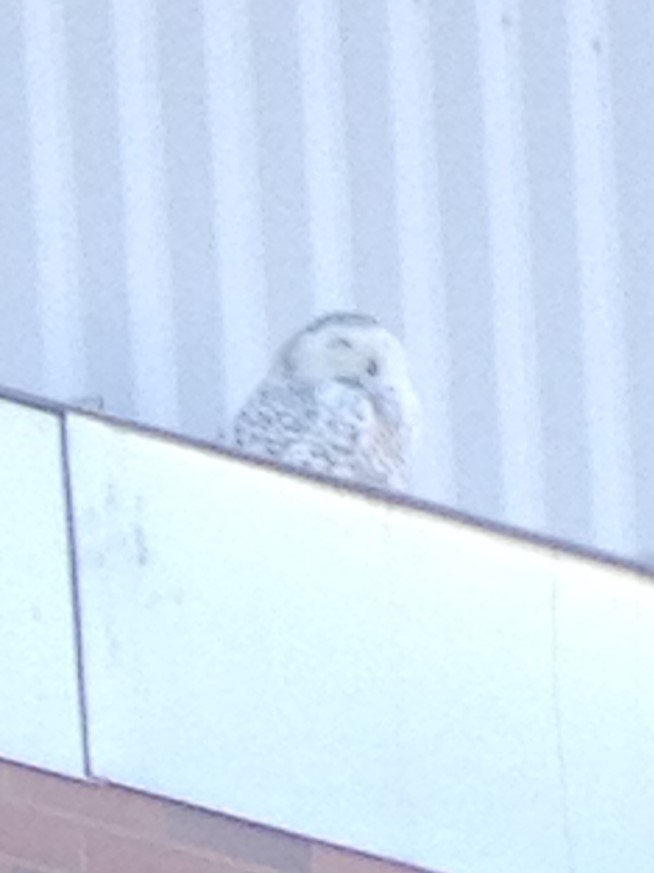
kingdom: Animalia
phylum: Chordata
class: Aves
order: Strigiformes
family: Strigidae
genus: Bubo
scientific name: Bubo scandiacus
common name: Snowy owl
